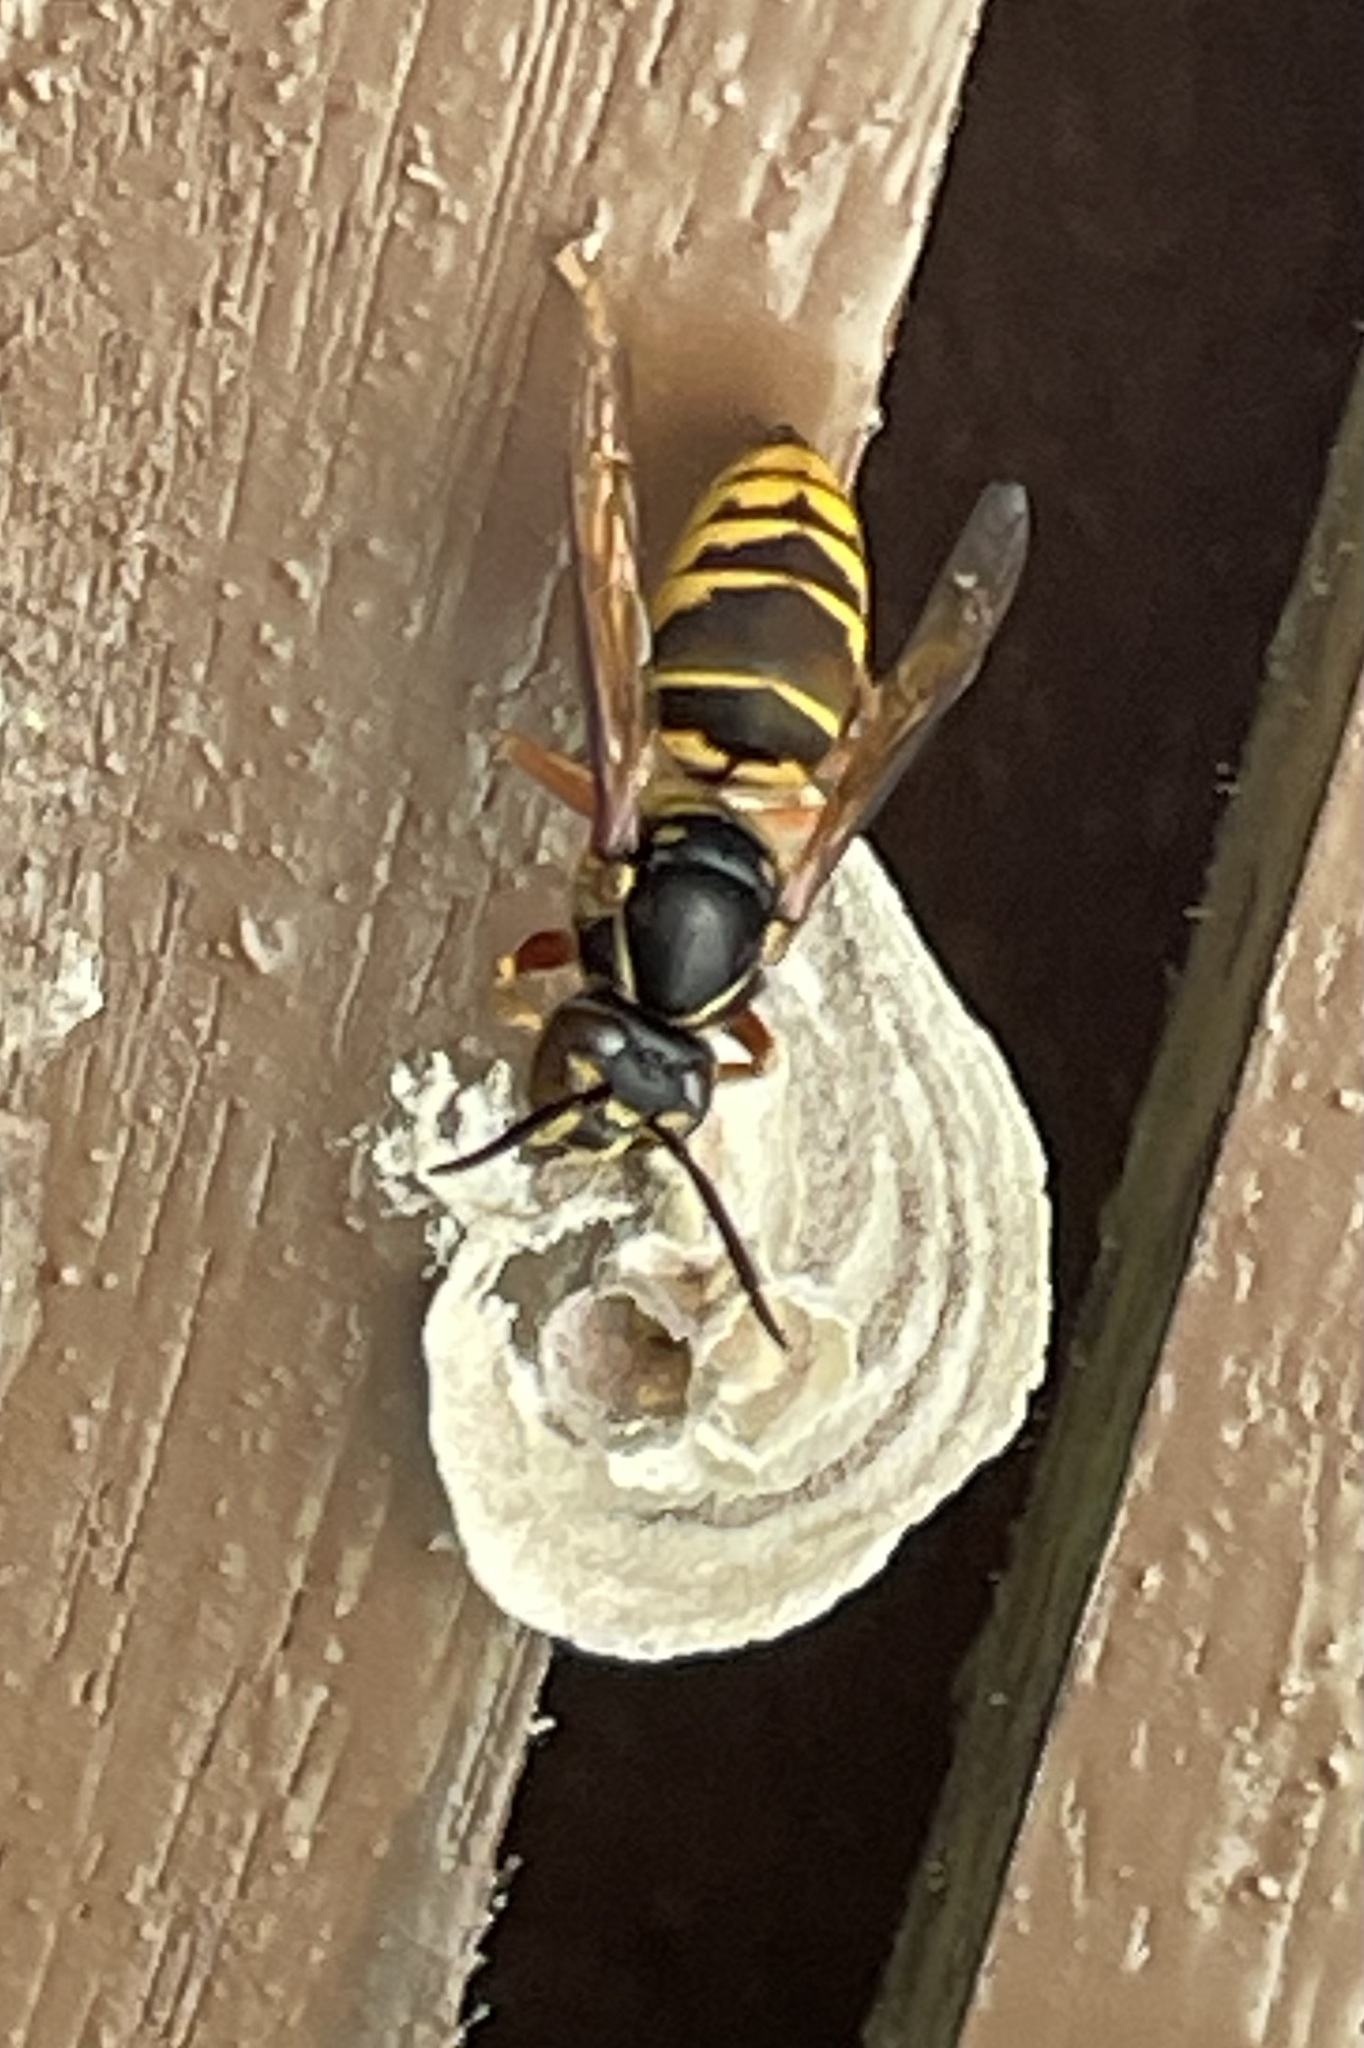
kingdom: Animalia
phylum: Arthropoda
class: Insecta
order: Hymenoptera
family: Vespidae
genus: Vespa
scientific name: Vespa multimaculata
